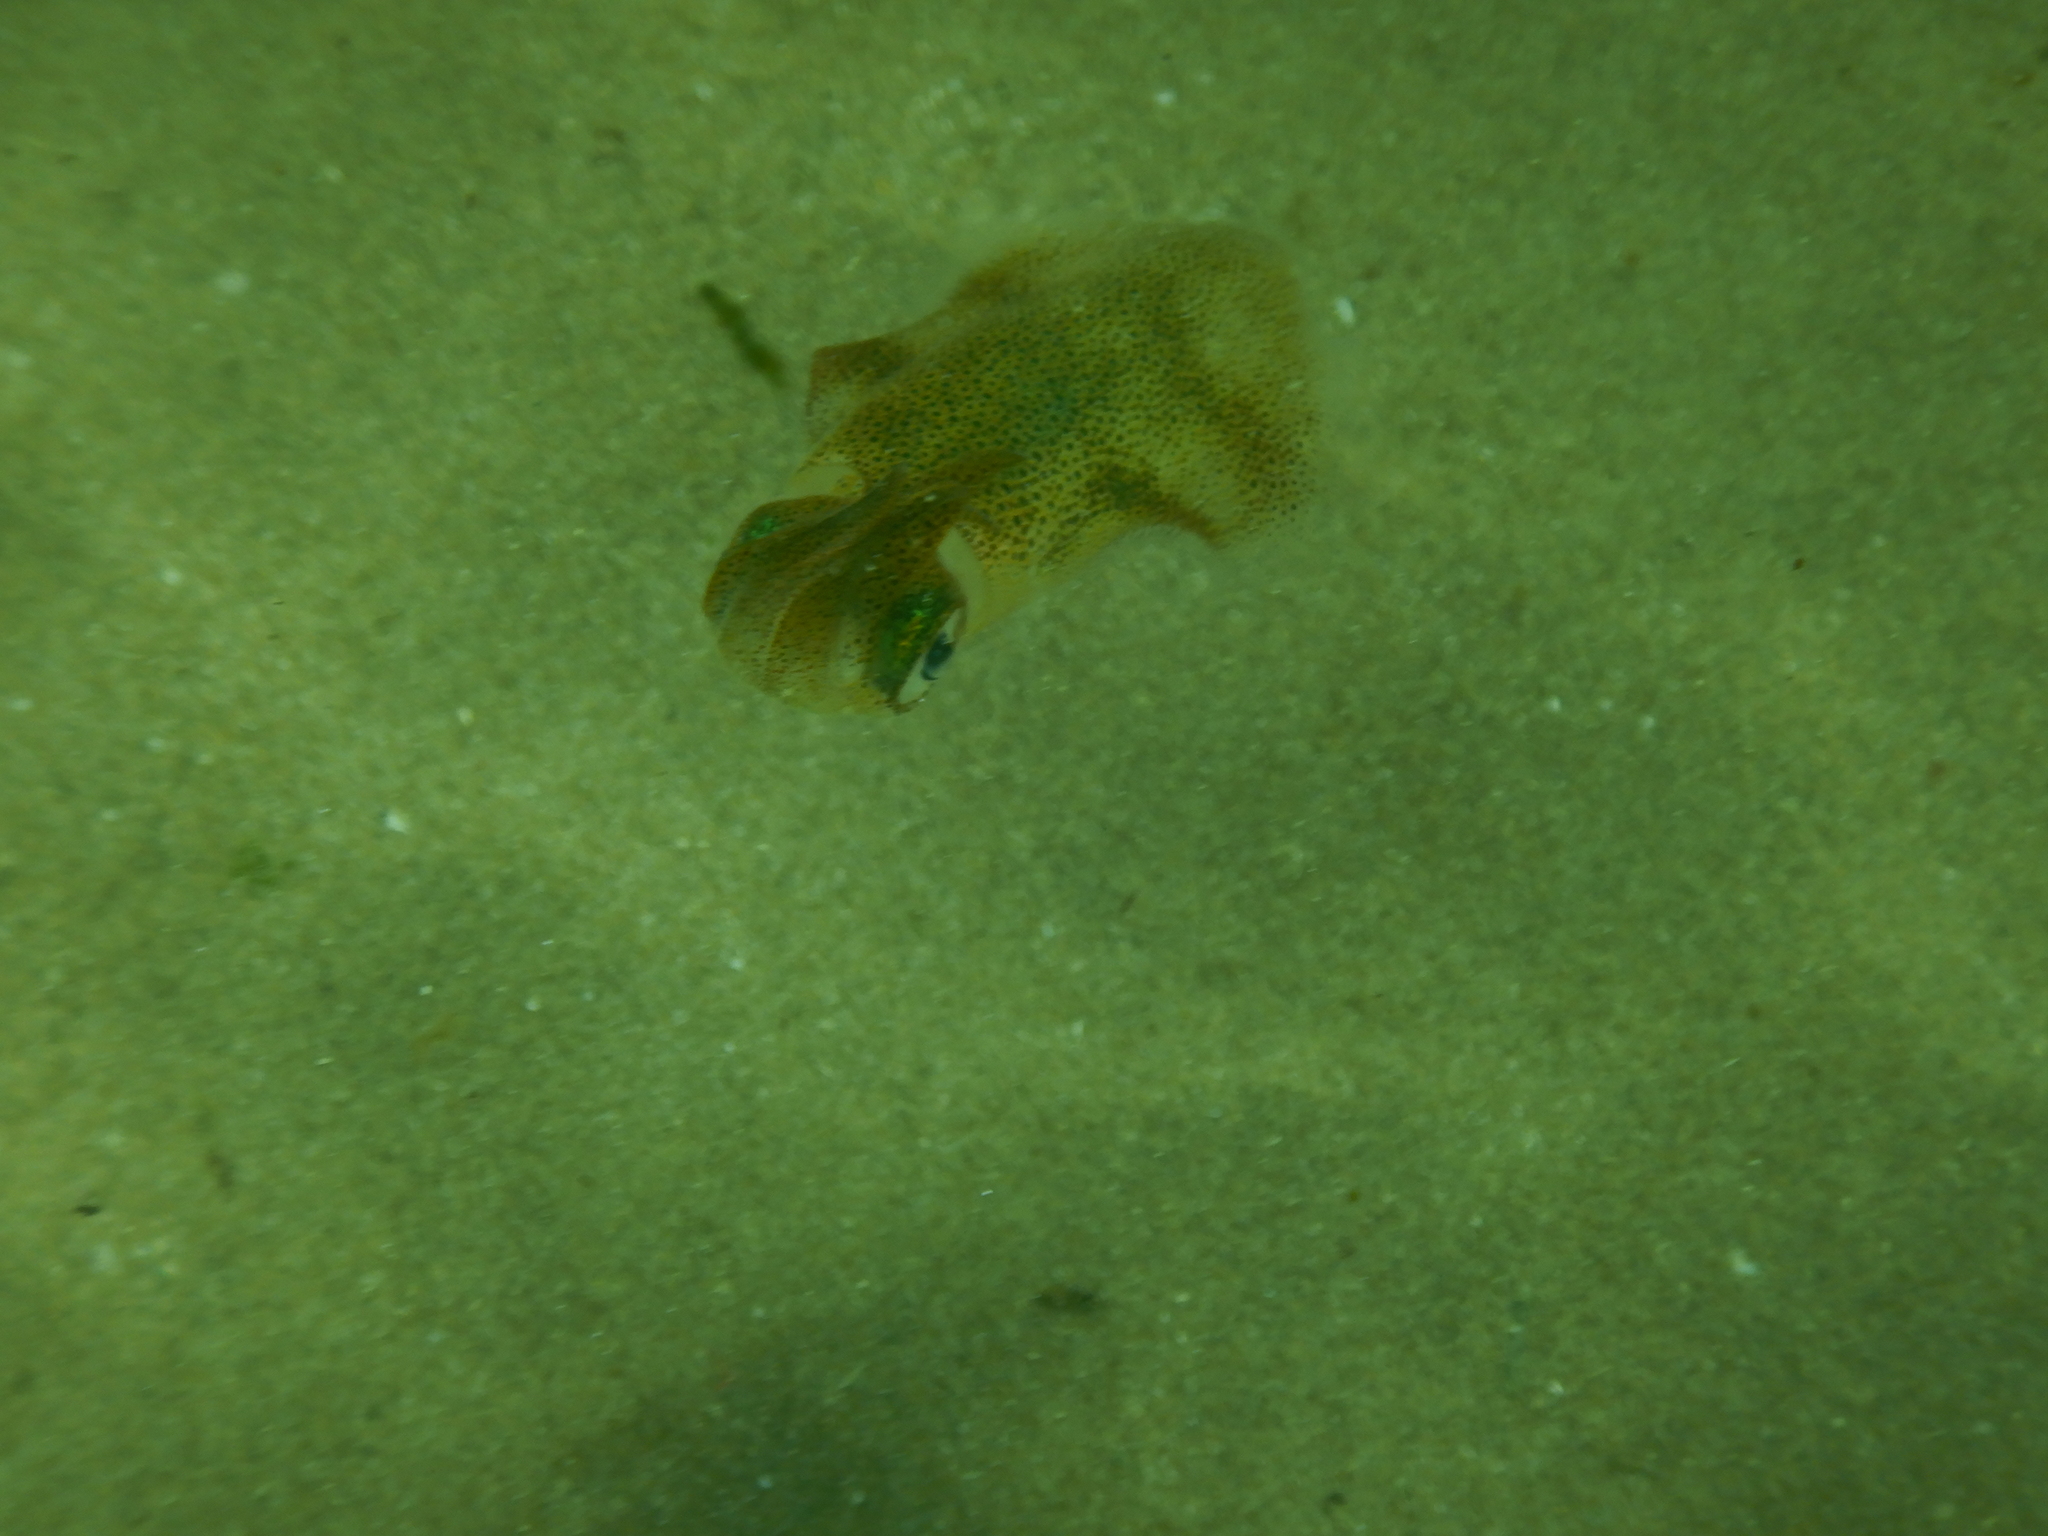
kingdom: Animalia
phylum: Mollusca
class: Cephalopoda
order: Myopsida
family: Loliginidae
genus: Sepioteuthis
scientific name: Sepioteuthis australis
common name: Southern reef squid
